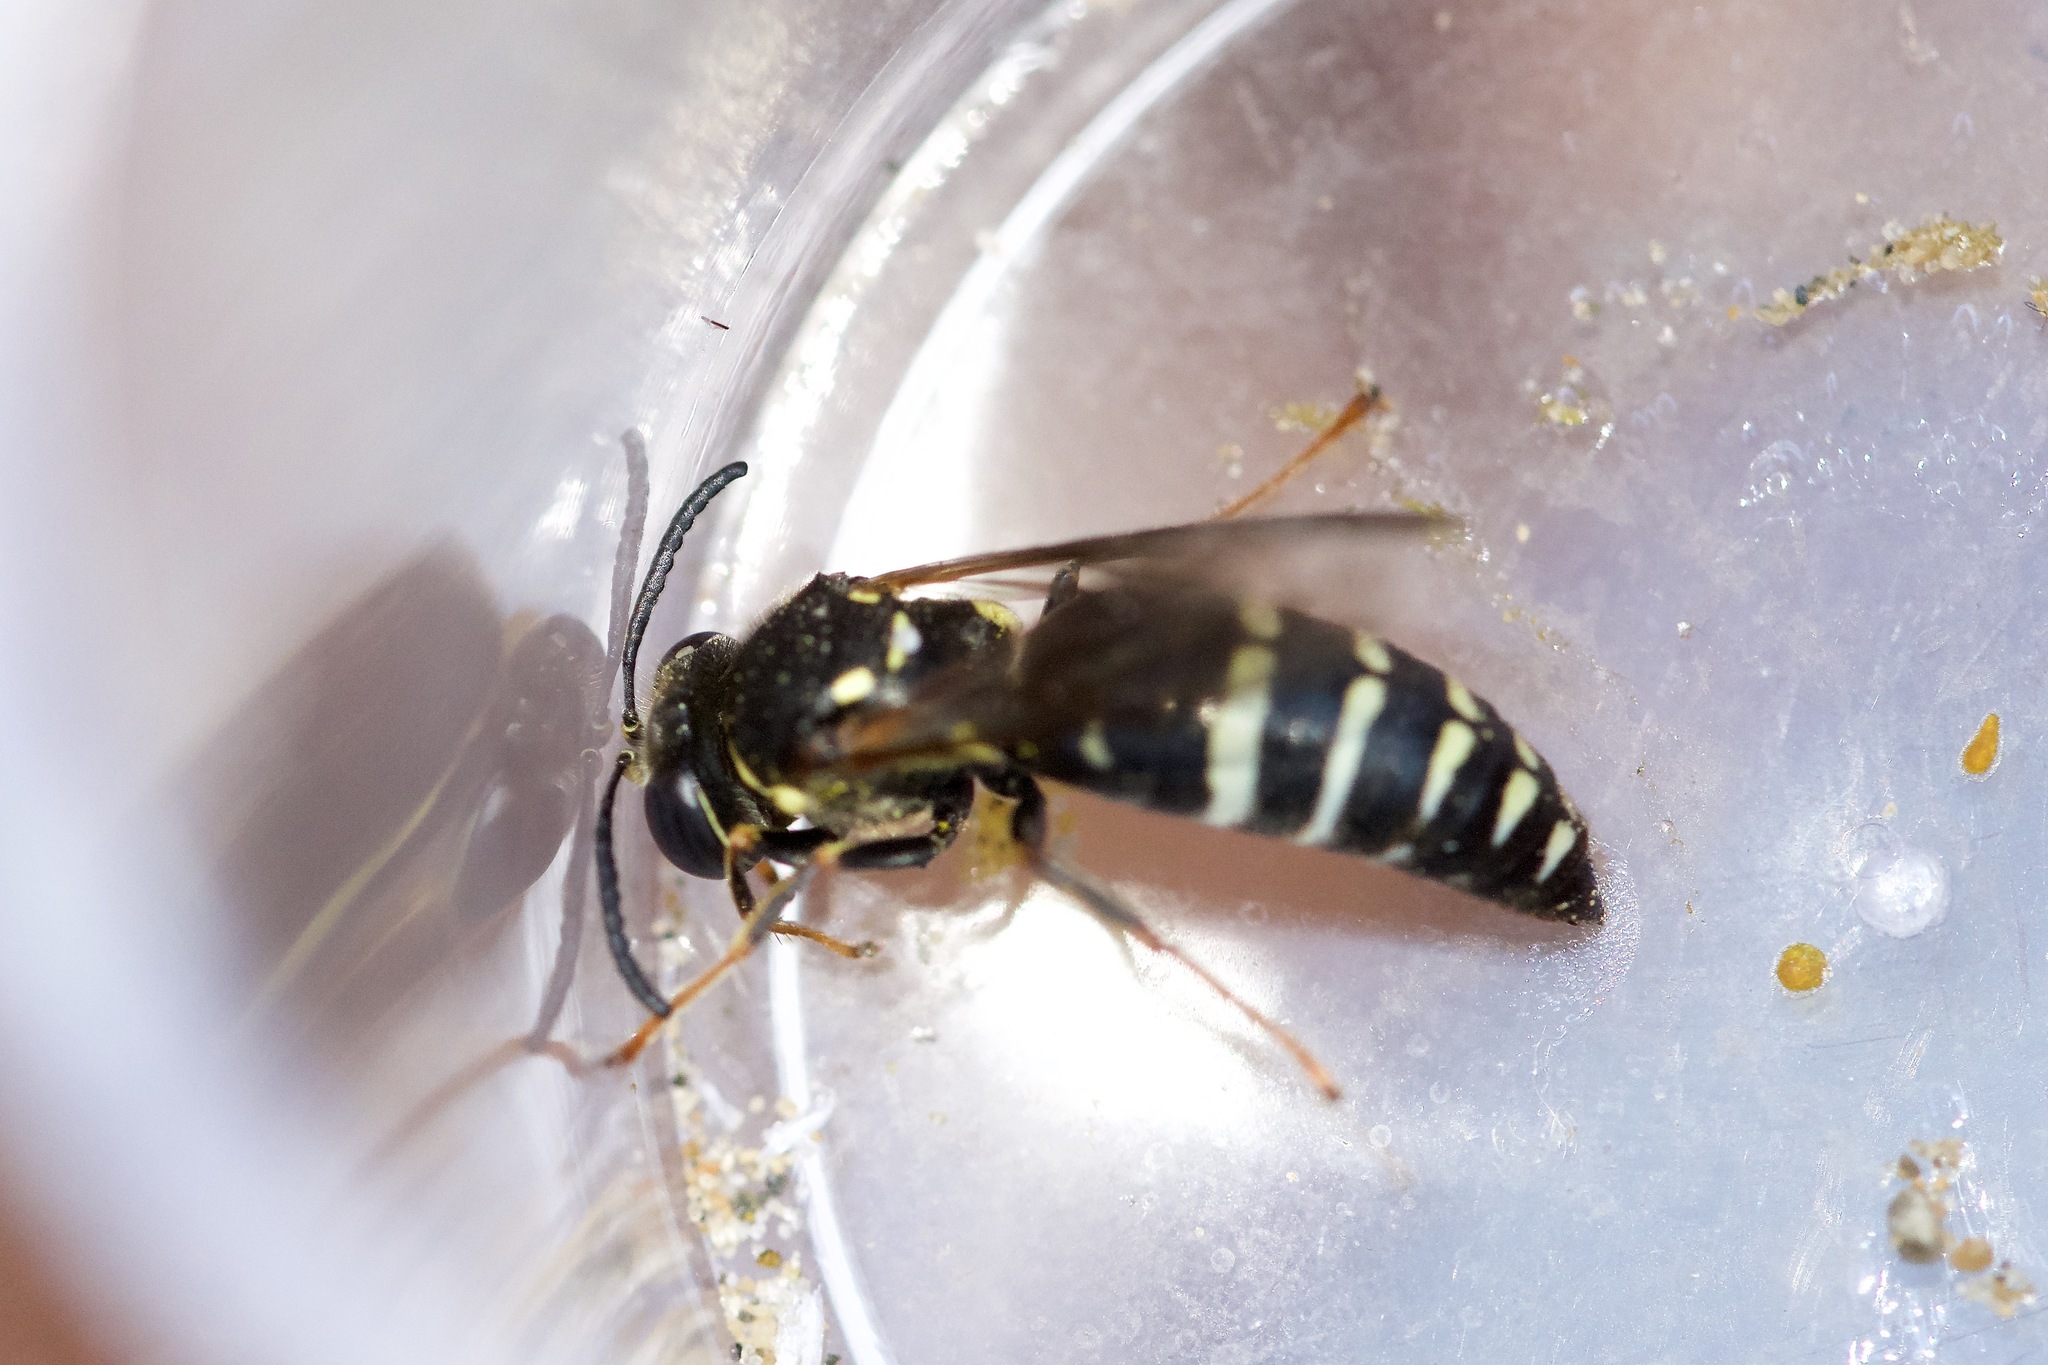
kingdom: Animalia
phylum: Arthropoda
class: Insecta
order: Hymenoptera
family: Crabronidae
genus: Bicyrtes
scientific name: Bicyrtes ventralis
